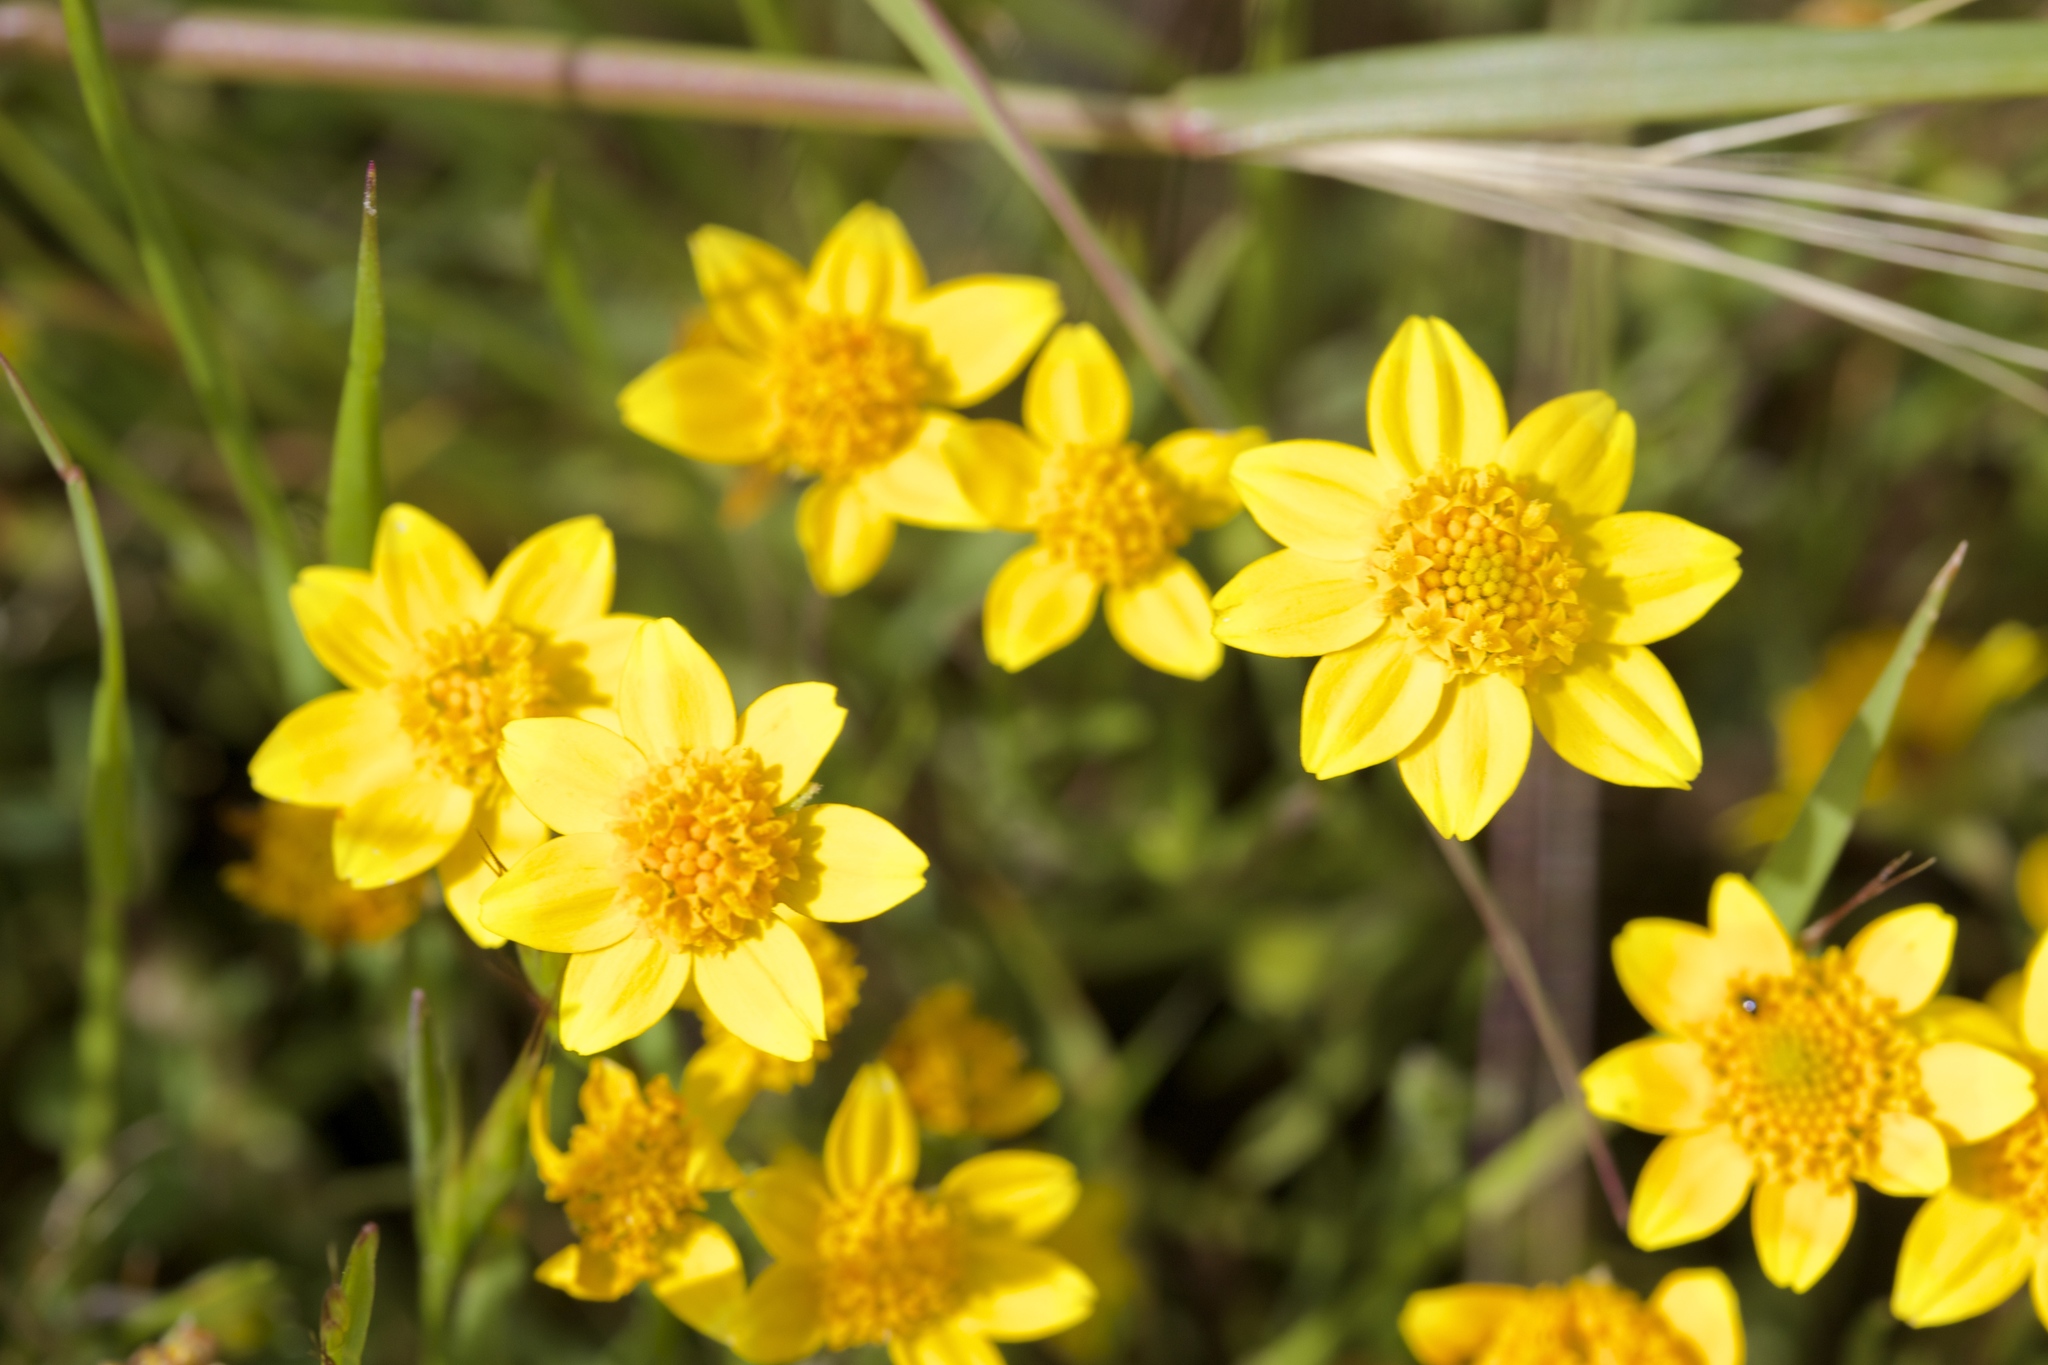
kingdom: Plantae
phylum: Tracheophyta
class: Magnoliopsida
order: Asterales
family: Asteraceae
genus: Lasthenia
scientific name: Lasthenia californica
